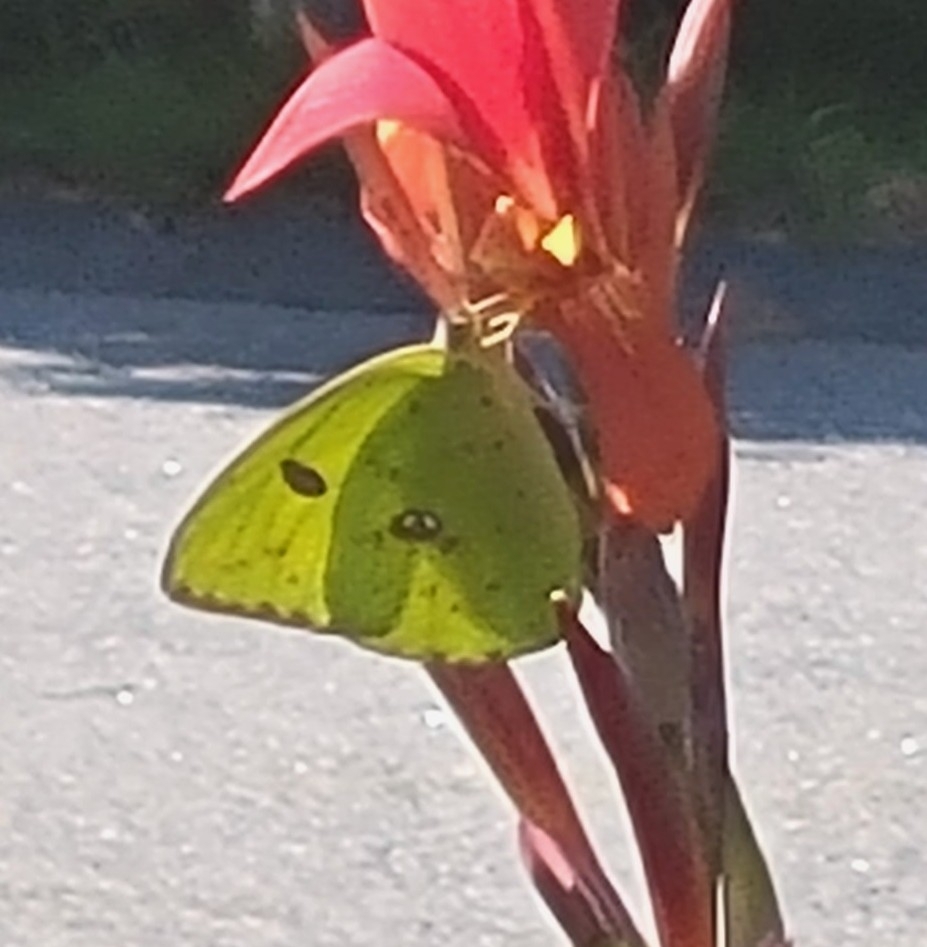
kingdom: Animalia
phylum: Arthropoda
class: Insecta
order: Lepidoptera
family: Pieridae
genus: Phoebis
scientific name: Phoebis sennae
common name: Cloudless sulphur
